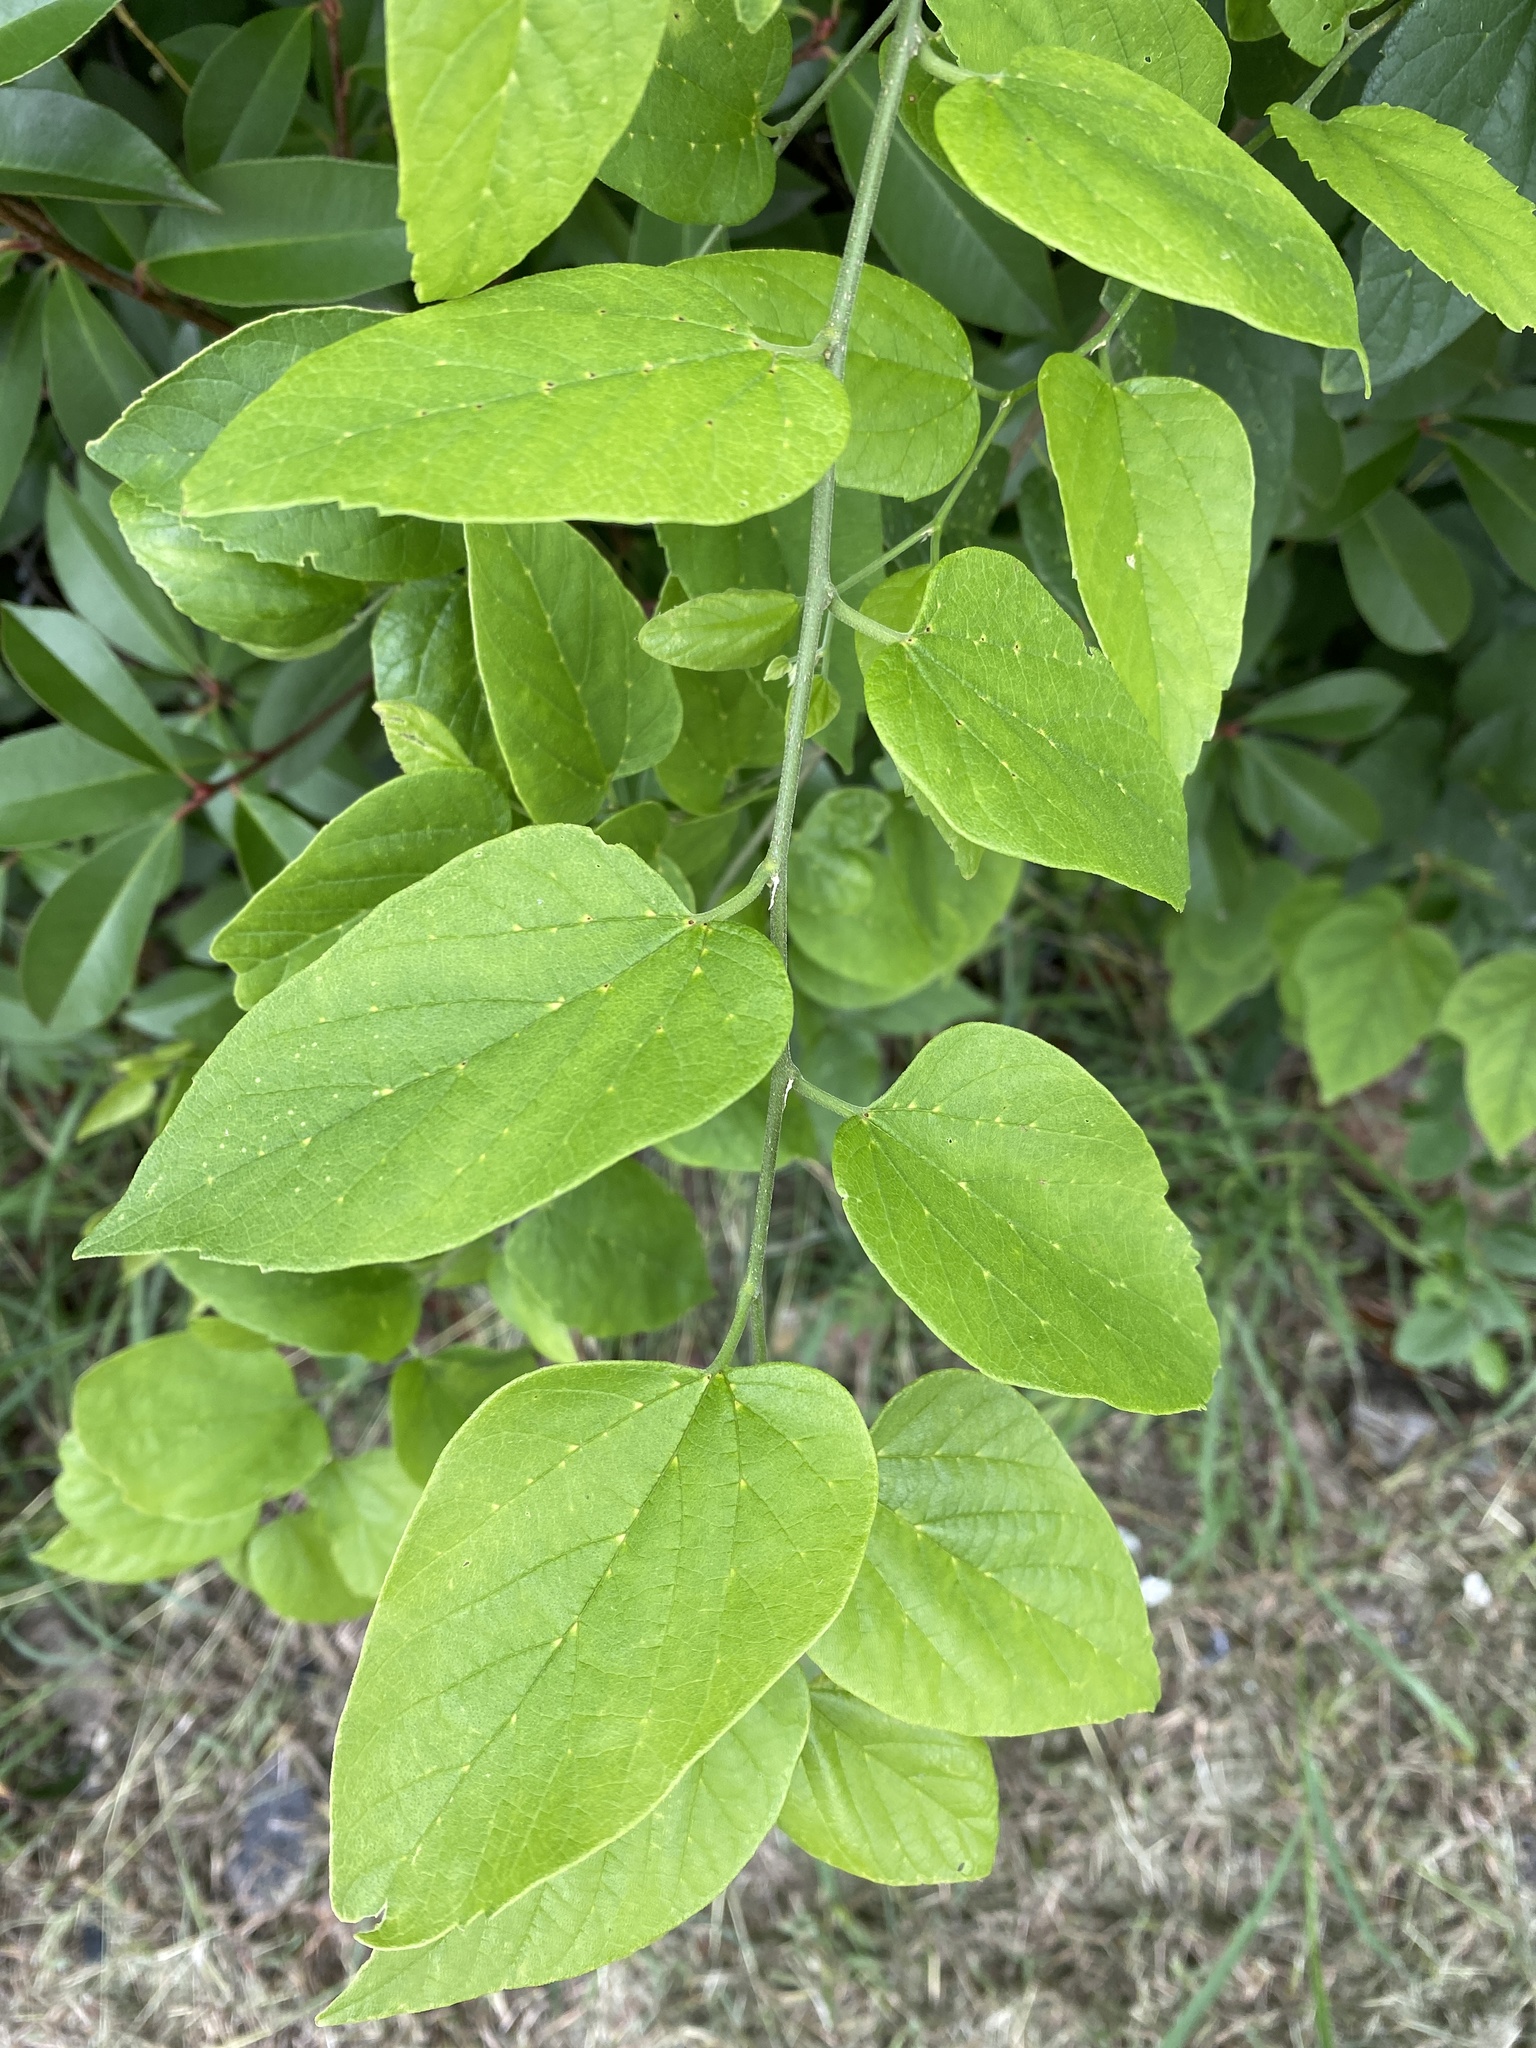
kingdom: Plantae
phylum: Tracheophyta
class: Magnoliopsida
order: Rosales
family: Cannabaceae
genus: Celtis
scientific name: Celtis laevigata
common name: Sugarberry
